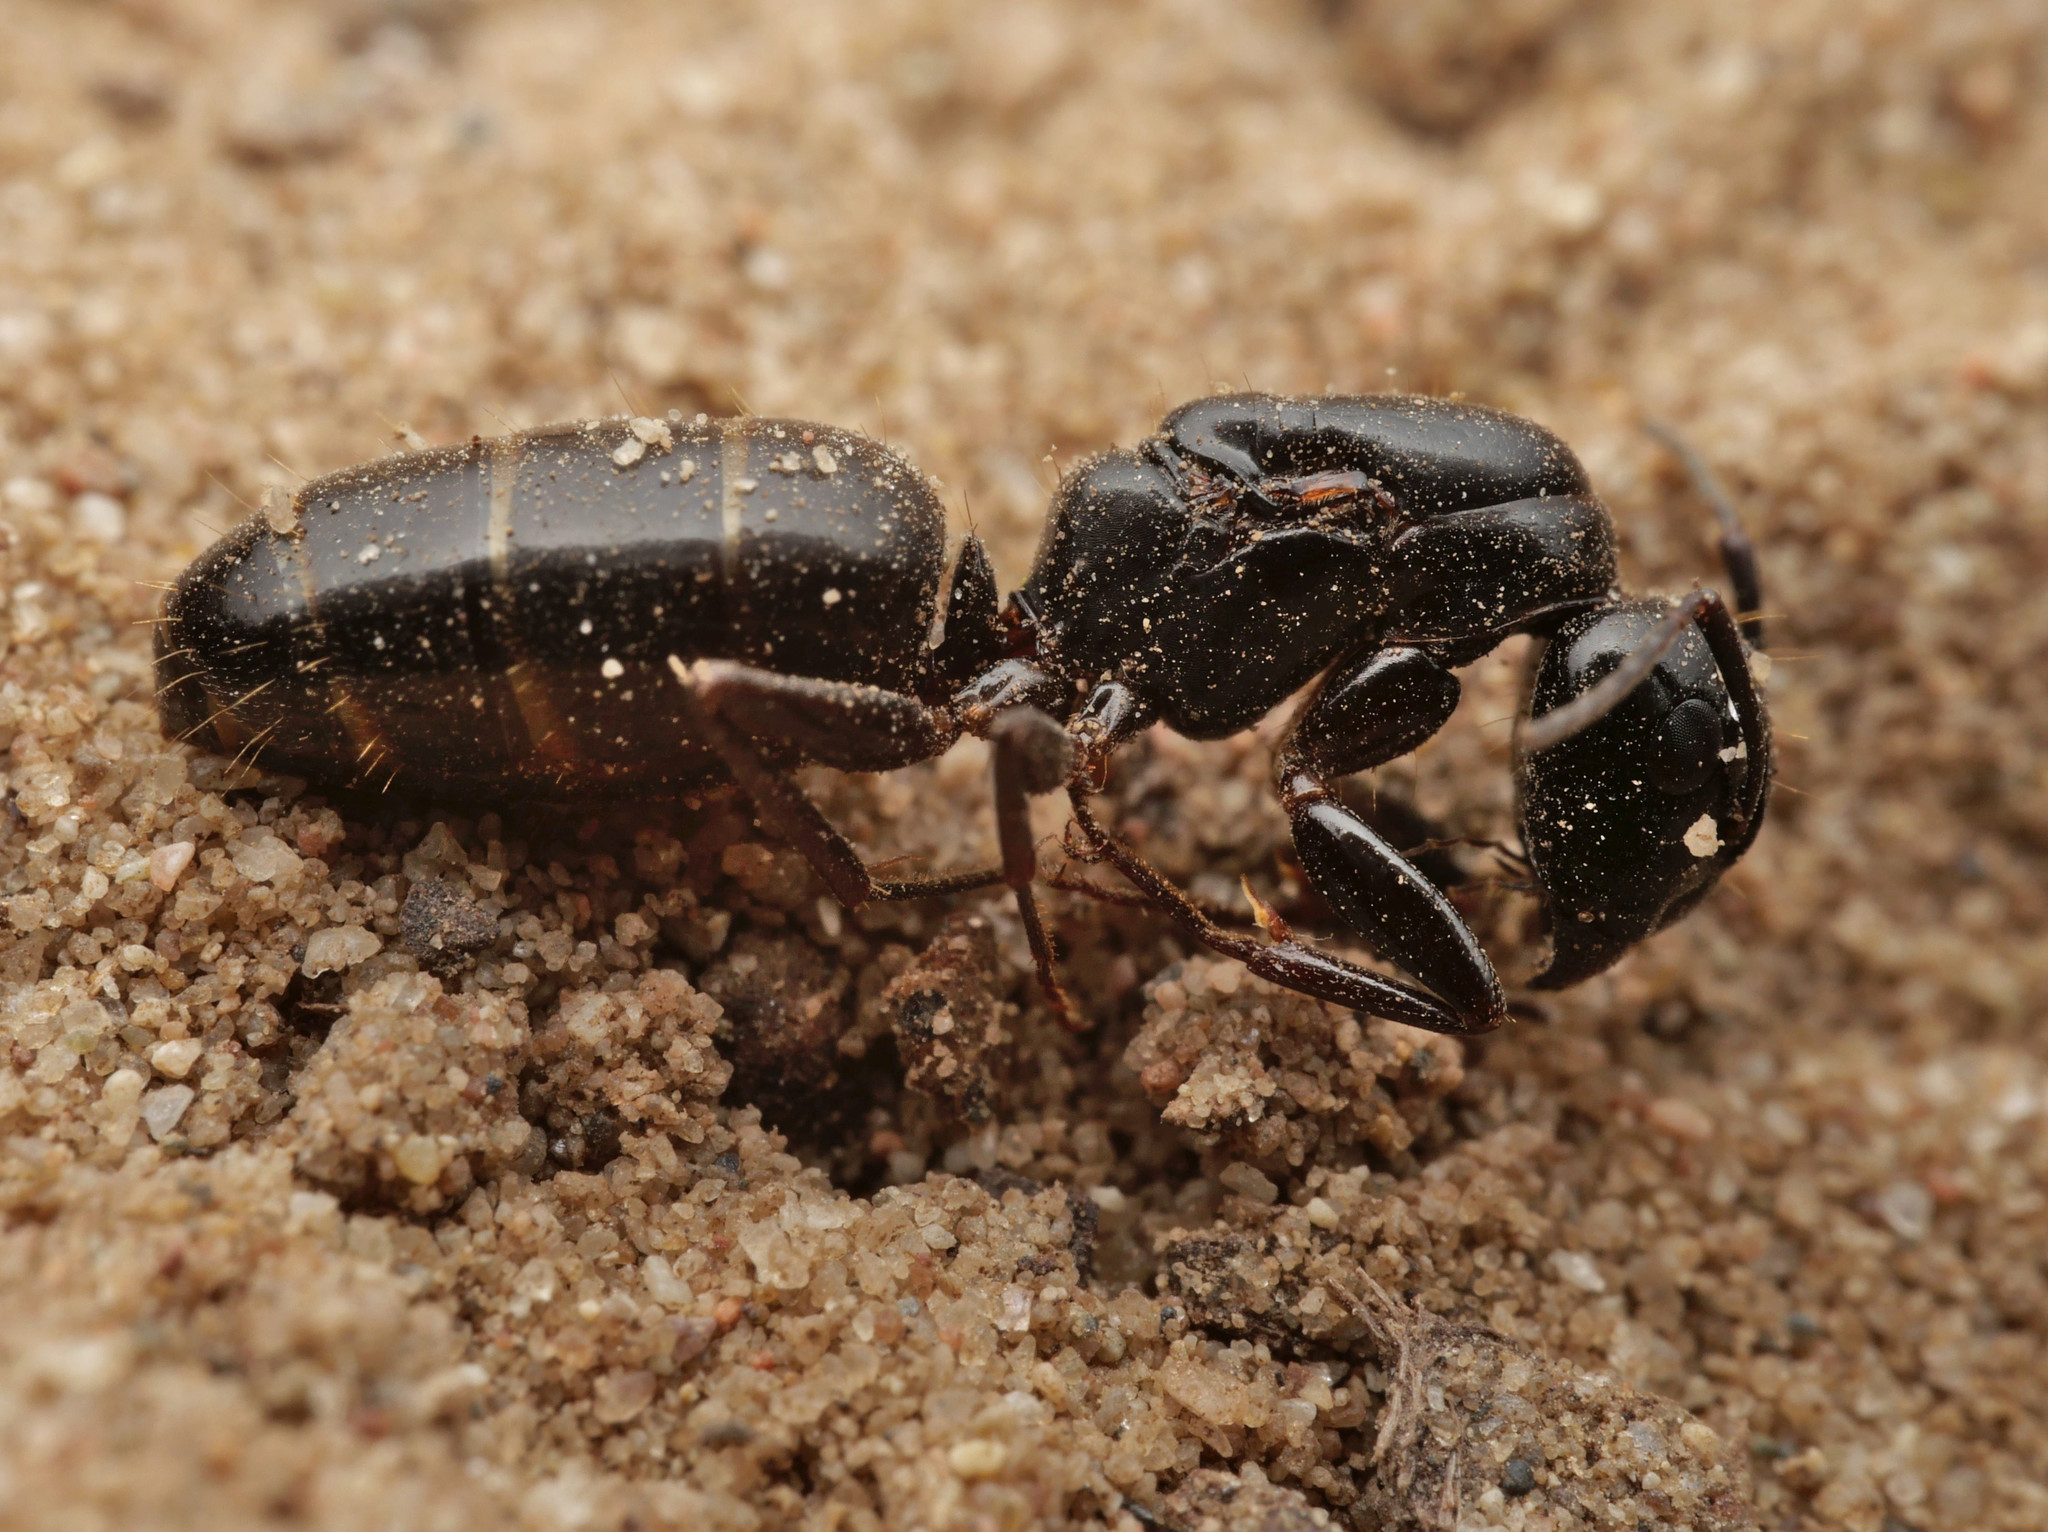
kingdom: Animalia
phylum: Arthropoda
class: Insecta
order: Hymenoptera
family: Formicidae
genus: Camponotus
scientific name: Camponotus fallax
